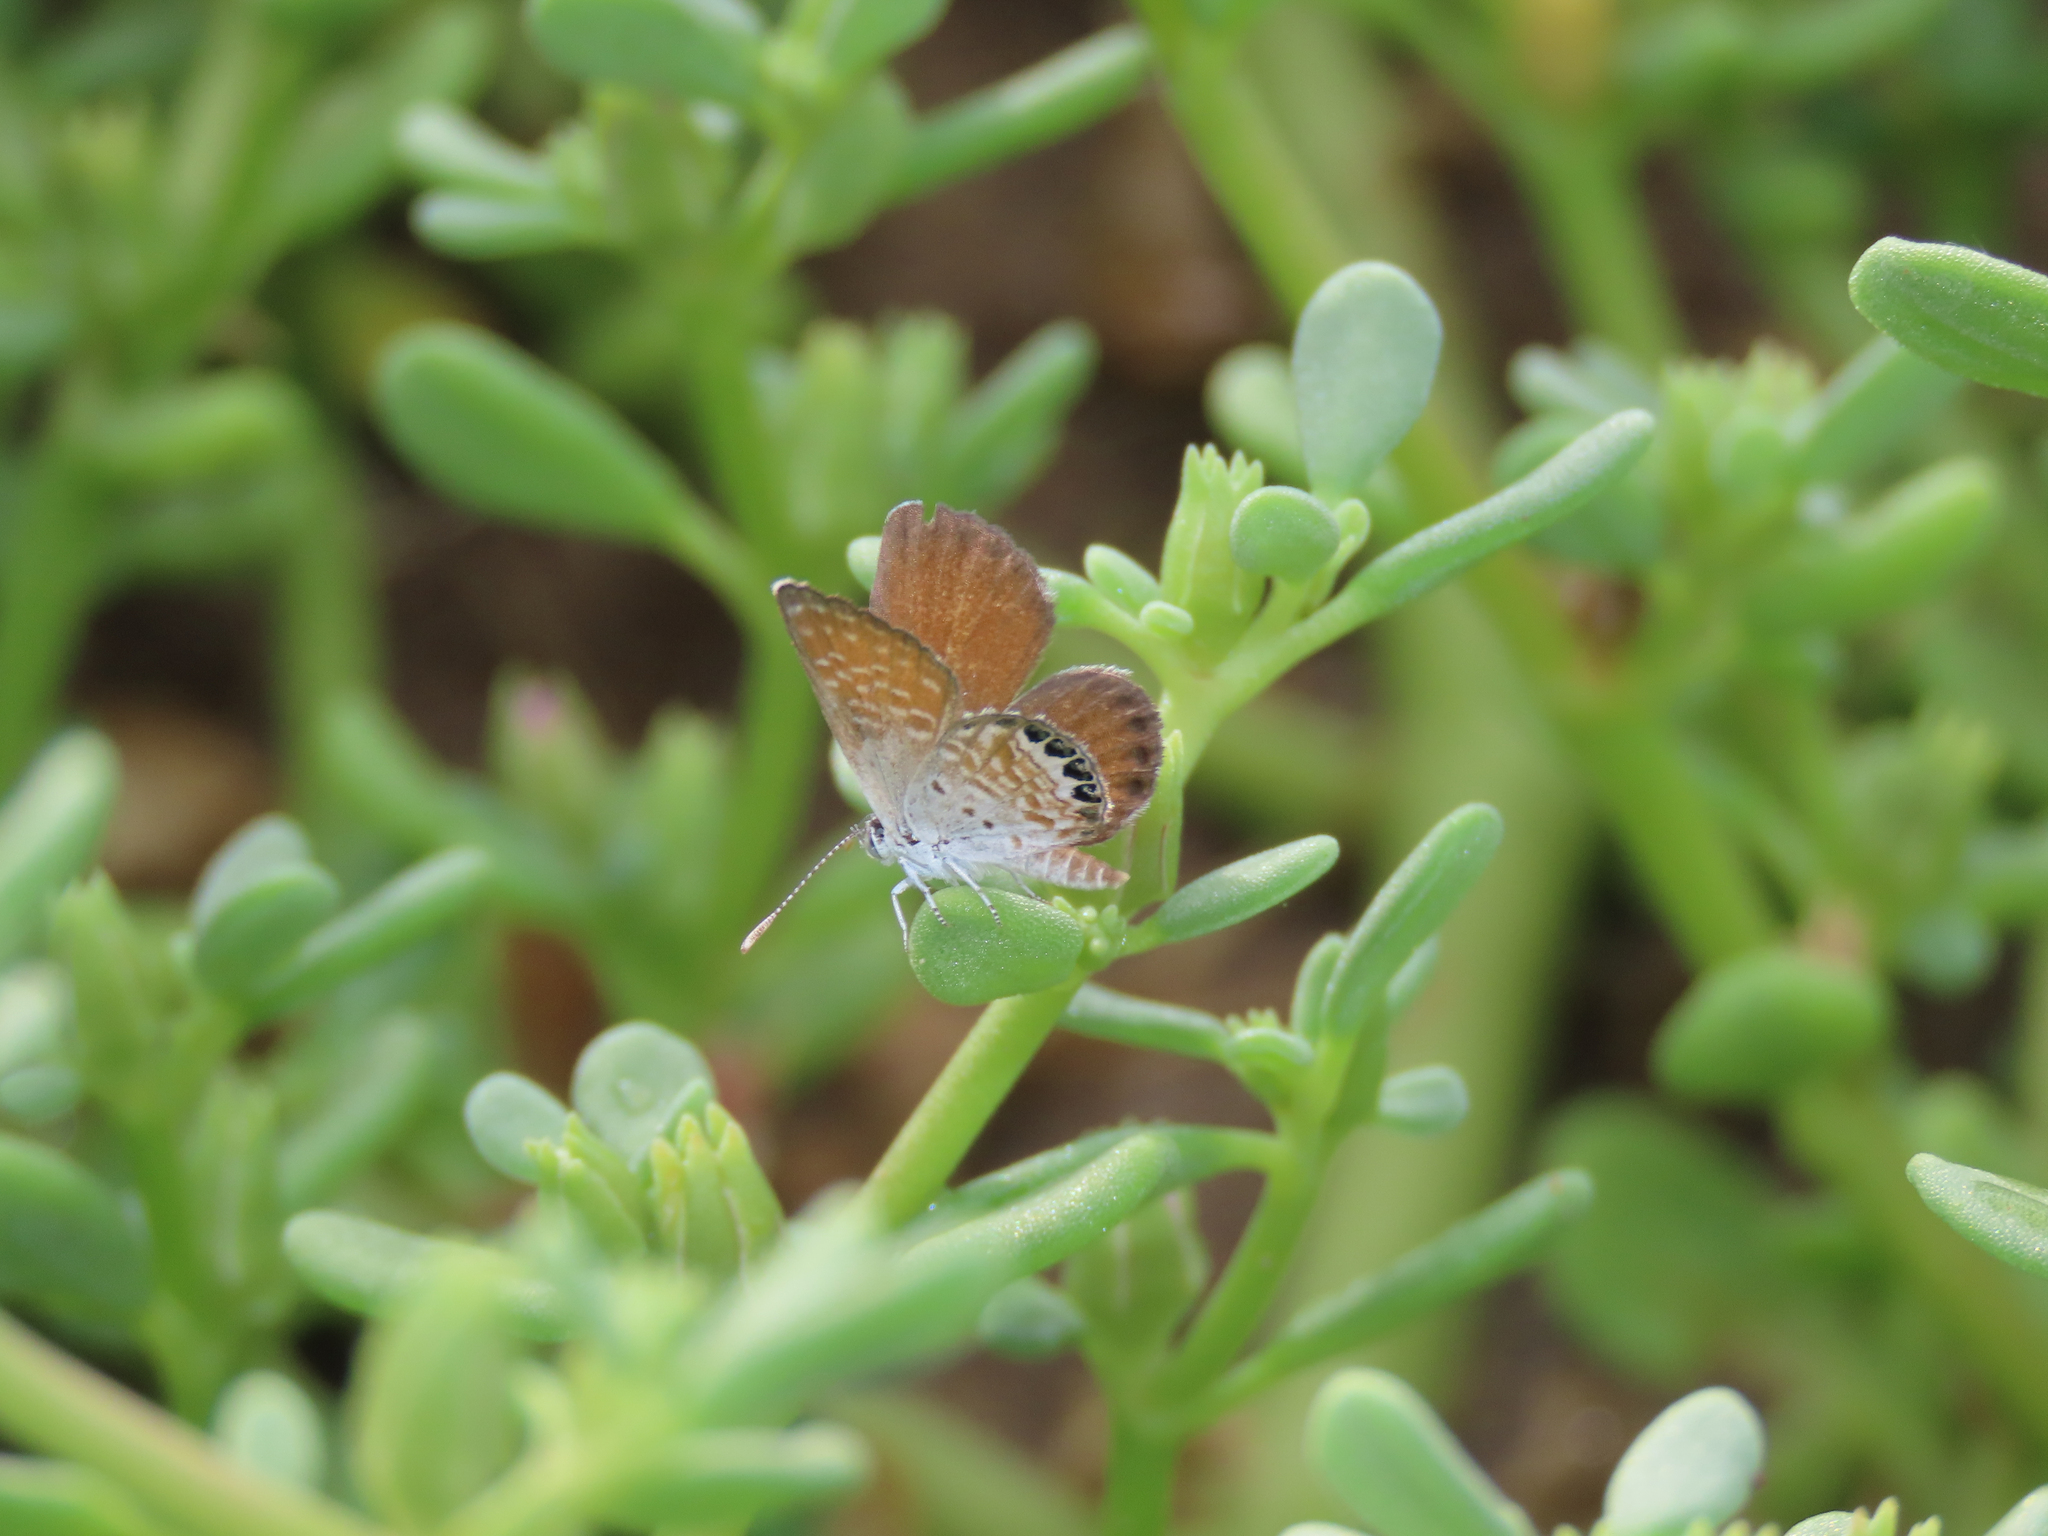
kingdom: Animalia
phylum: Arthropoda
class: Insecta
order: Lepidoptera
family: Lycaenidae
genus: Brephidium
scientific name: Brephidium exilis
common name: Pygmy blue
